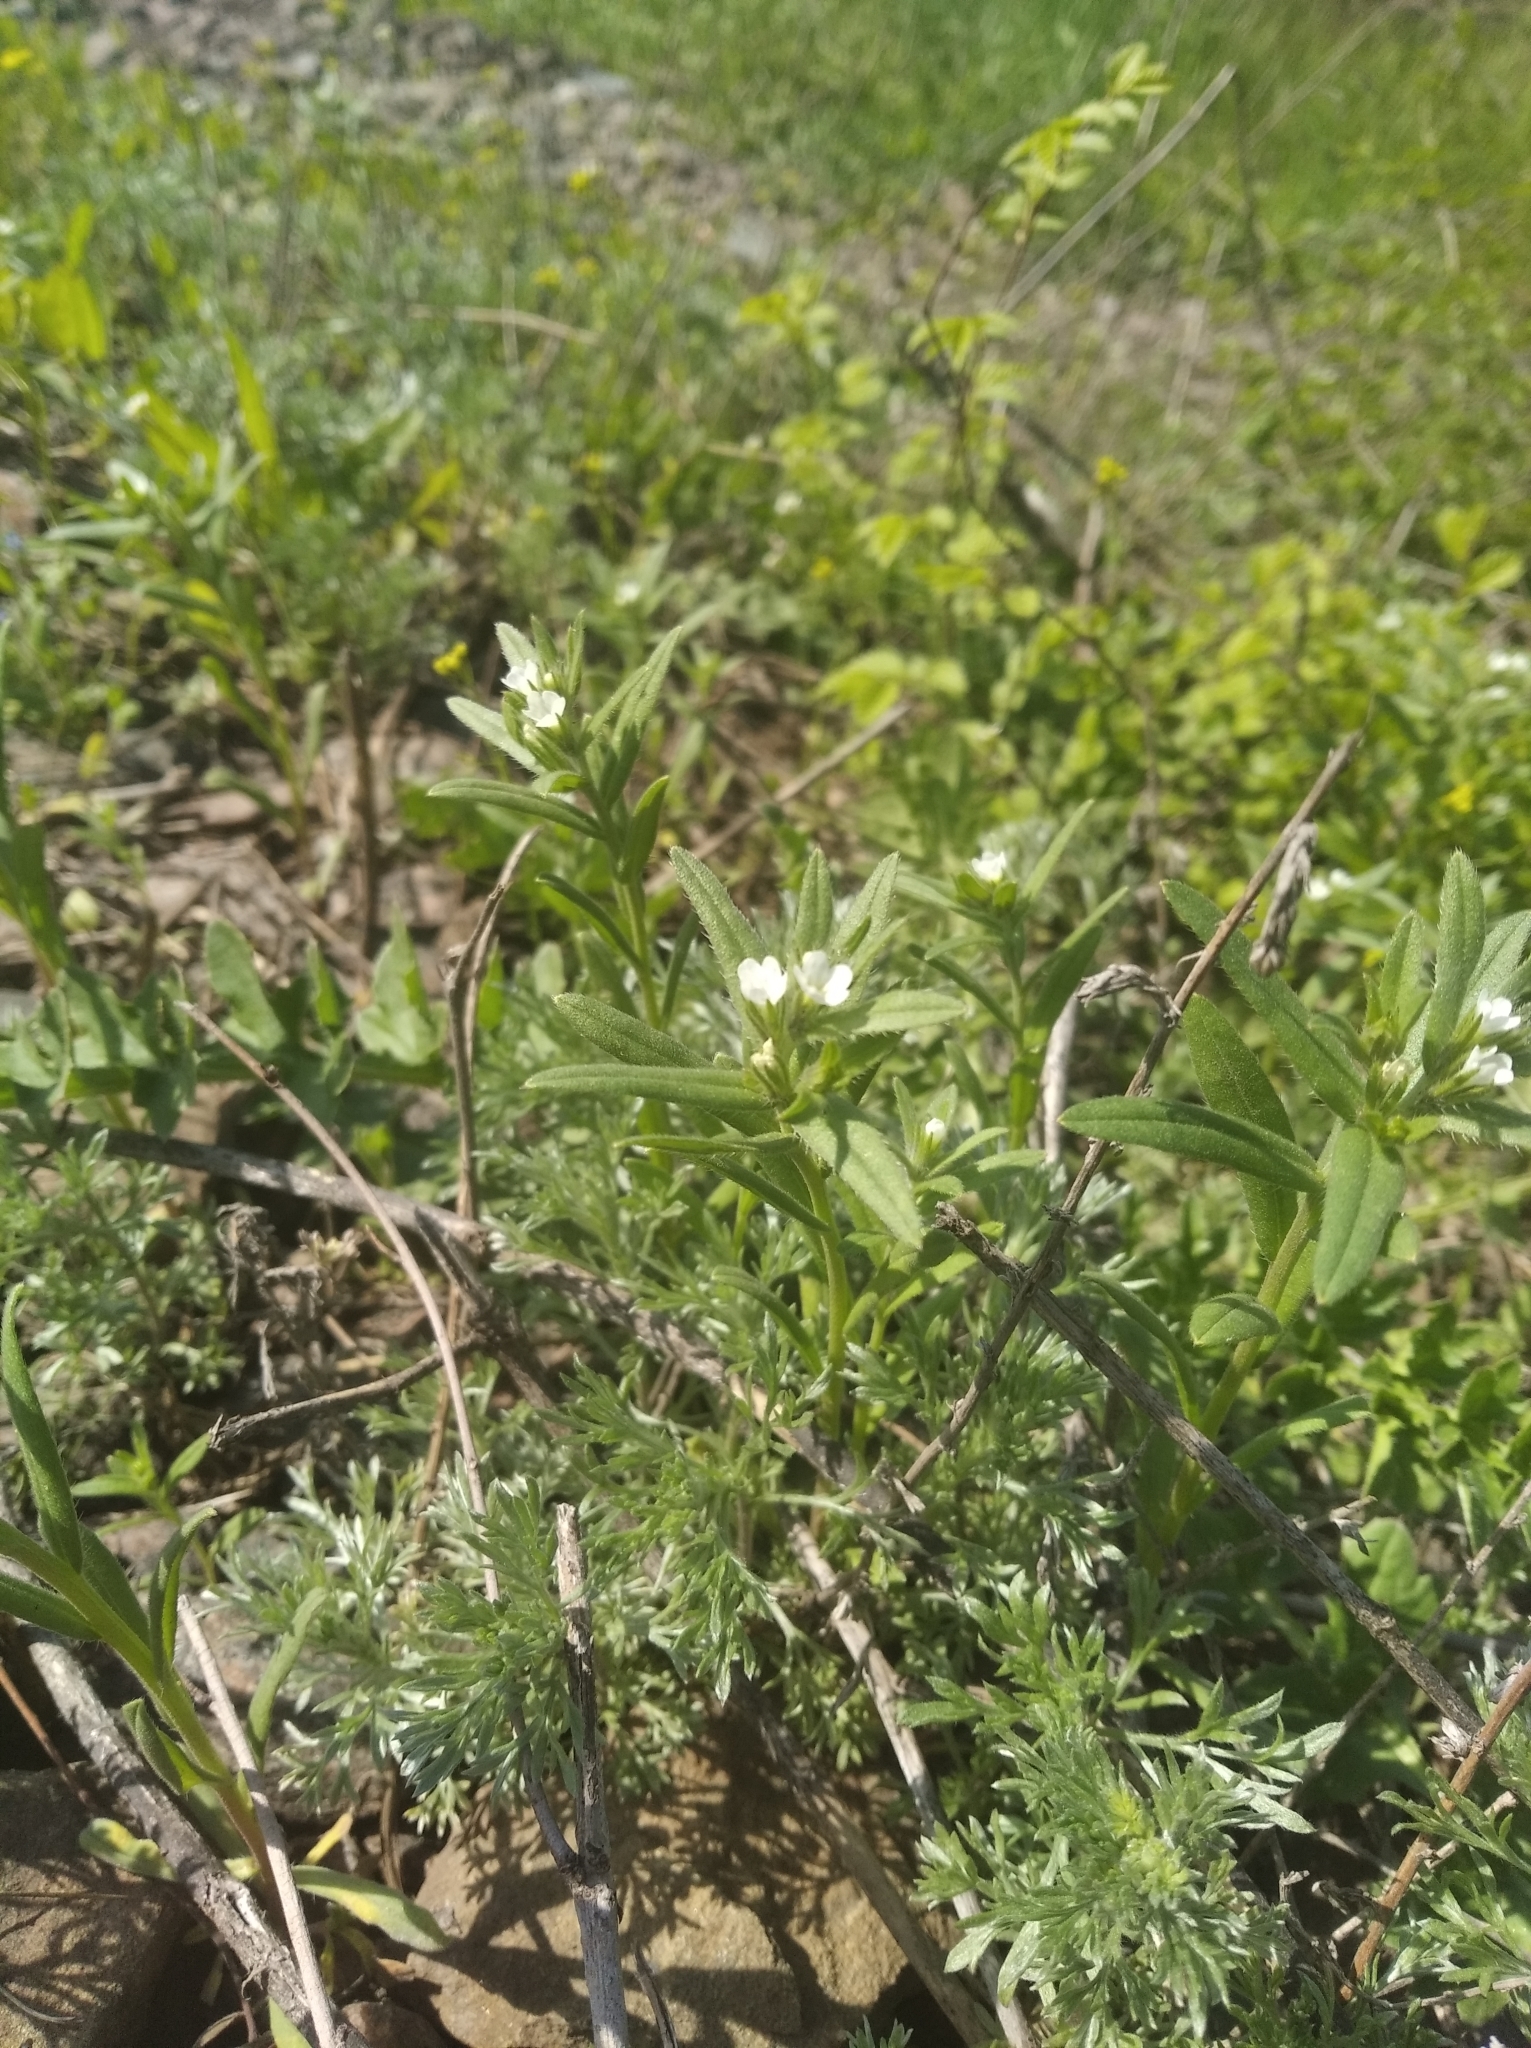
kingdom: Plantae
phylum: Tracheophyta
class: Magnoliopsida
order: Boraginales
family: Boraginaceae
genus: Buglossoides
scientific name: Buglossoides arvensis
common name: Corn gromwell
